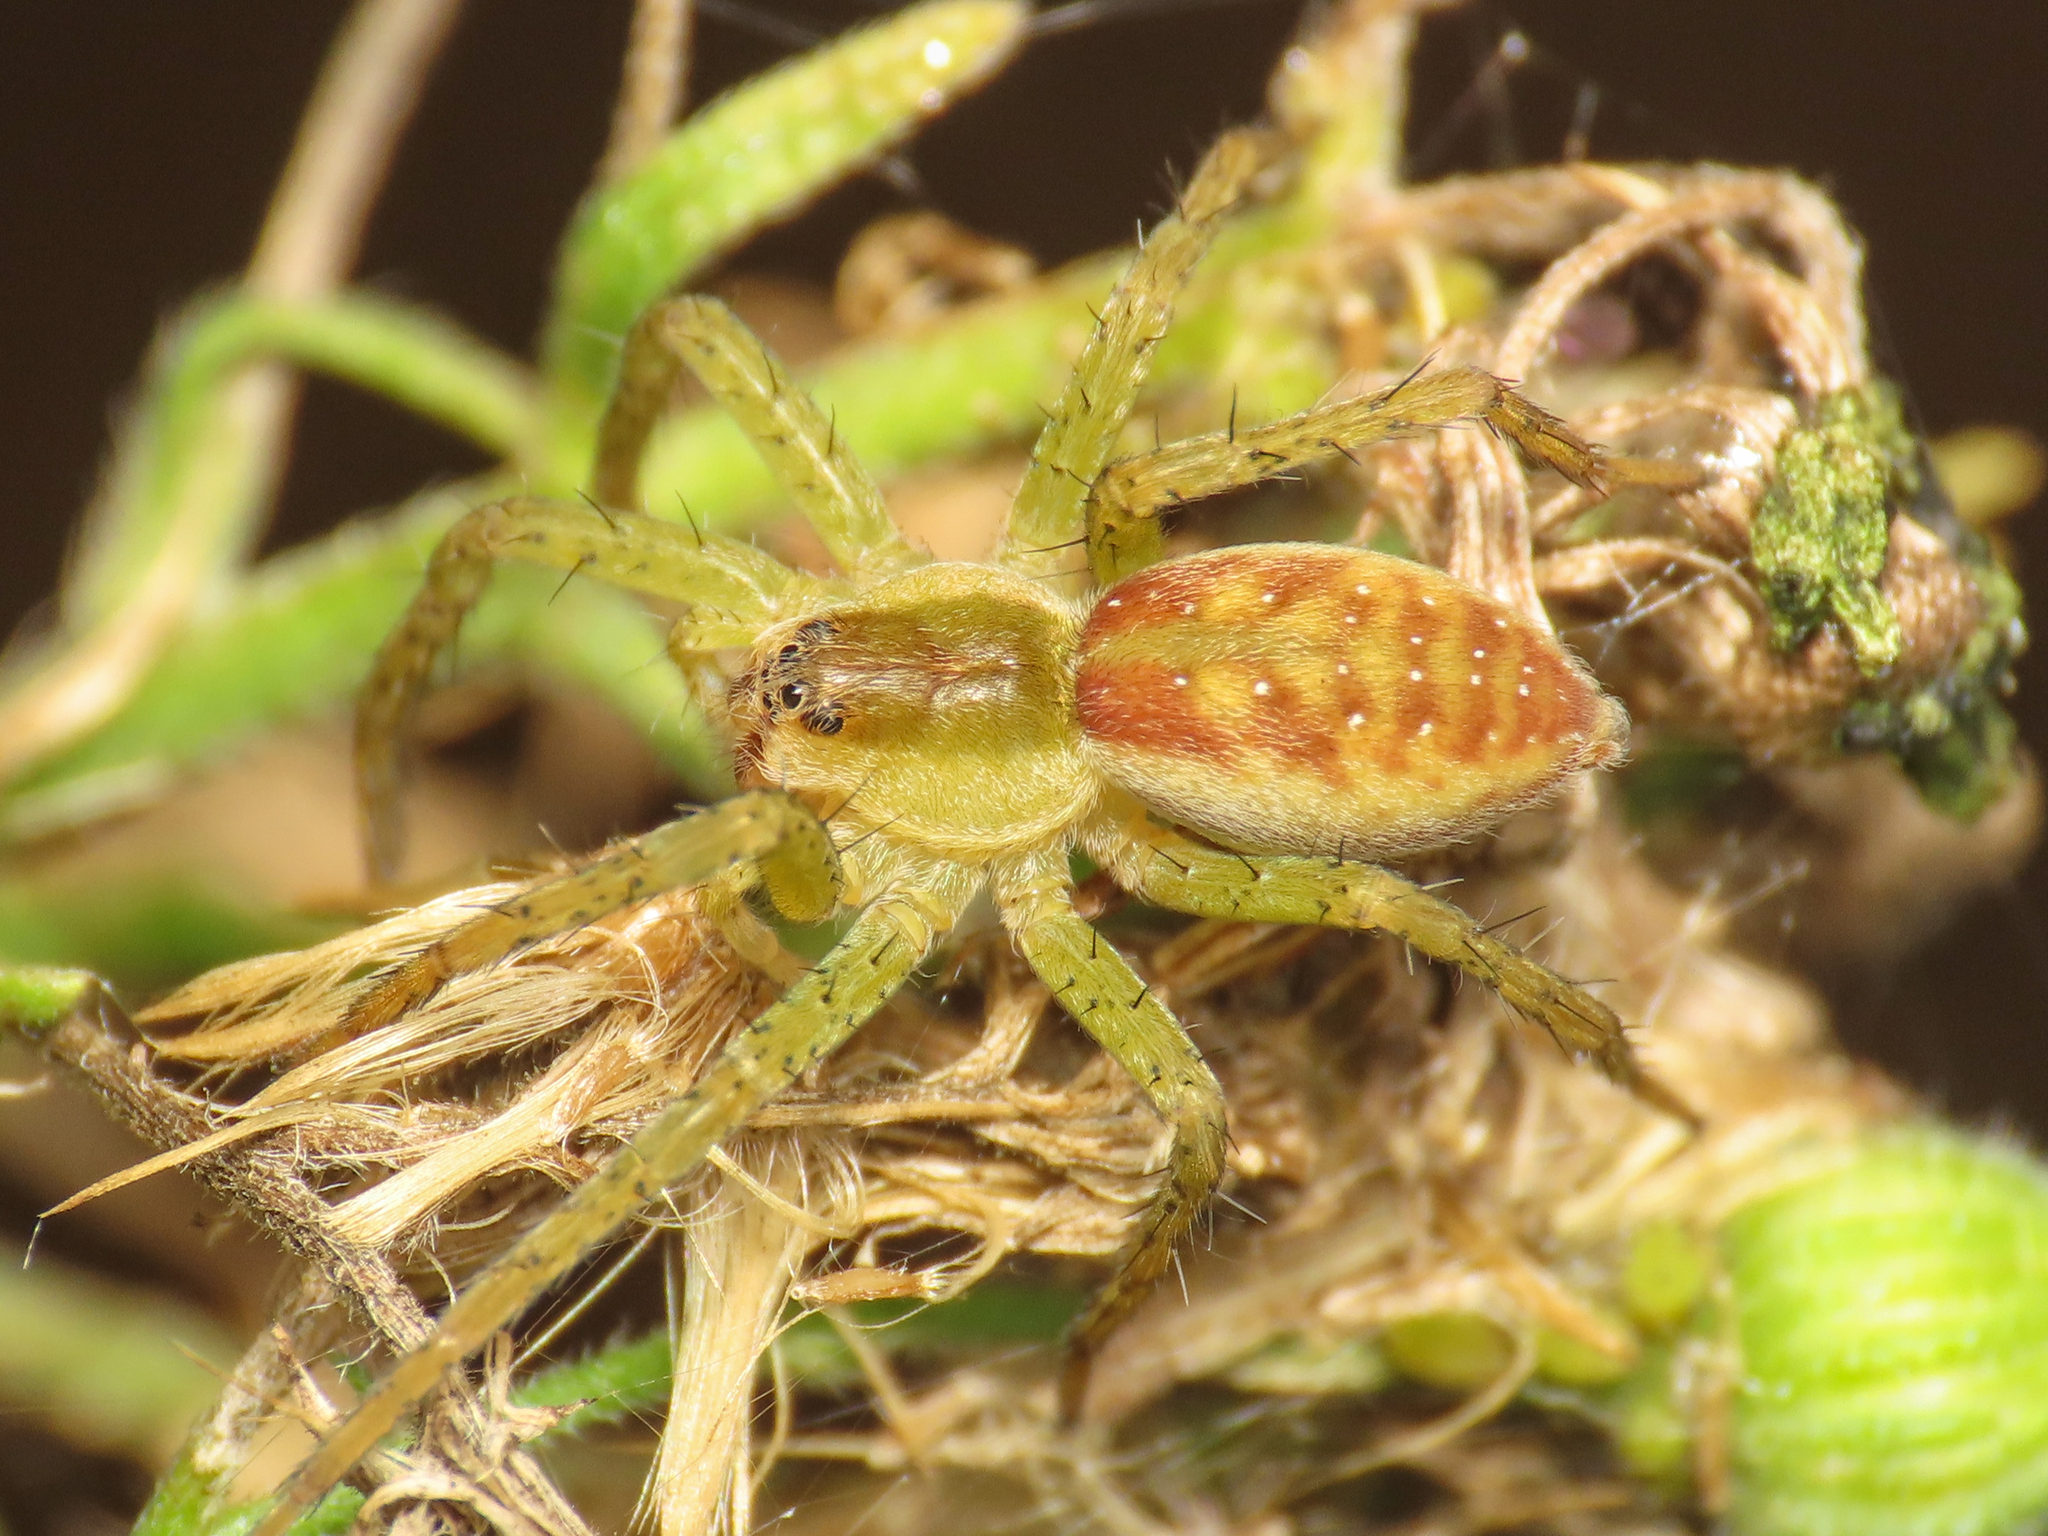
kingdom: Animalia
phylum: Arthropoda
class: Arachnida
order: Araneae
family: Pisauridae
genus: Dolomedes
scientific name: Dolomedes
